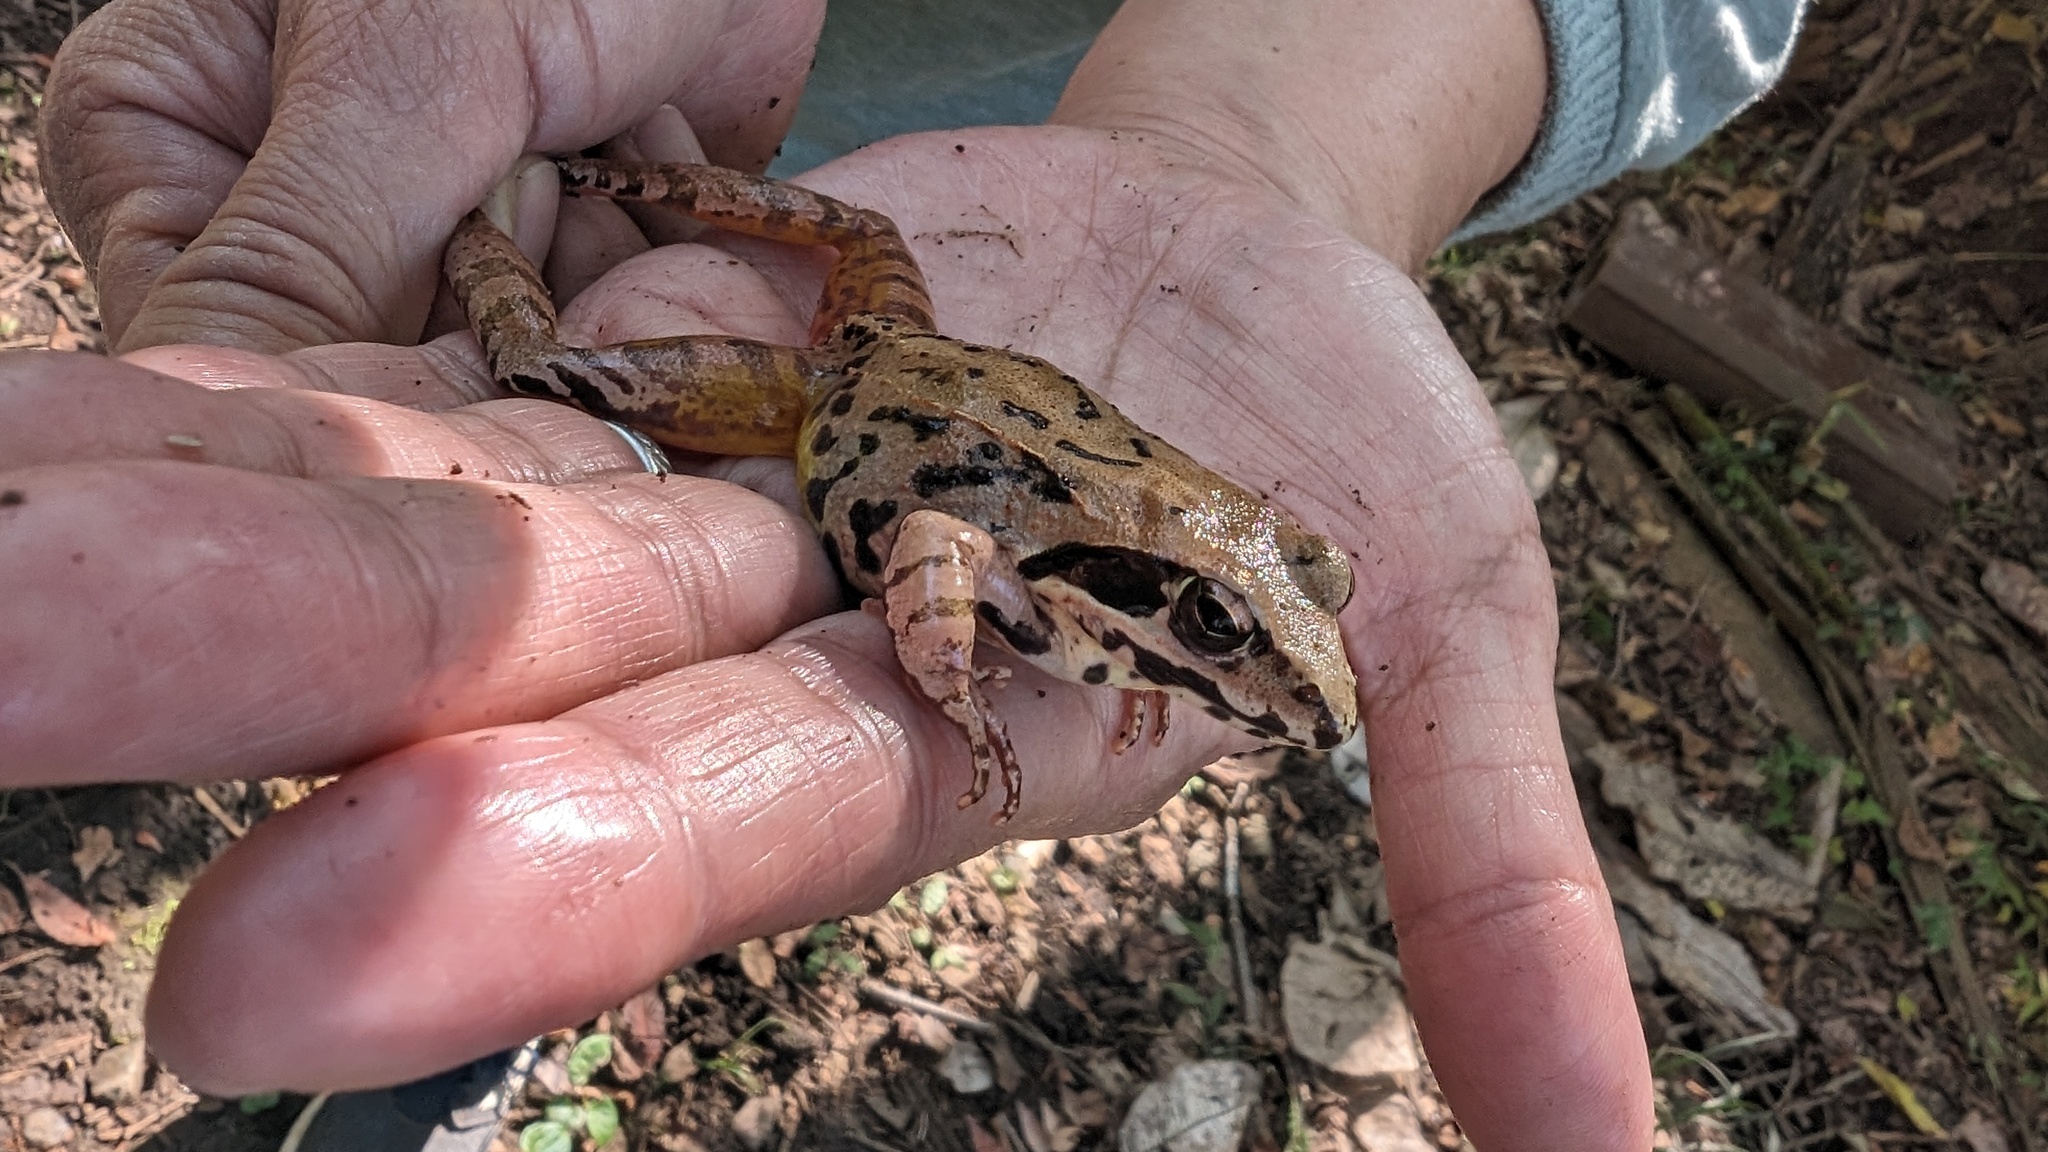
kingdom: Animalia
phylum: Chordata
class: Amphibia
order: Anura
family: Ranidae
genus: Rana
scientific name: Rana ornativentris
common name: Montane brown frog
